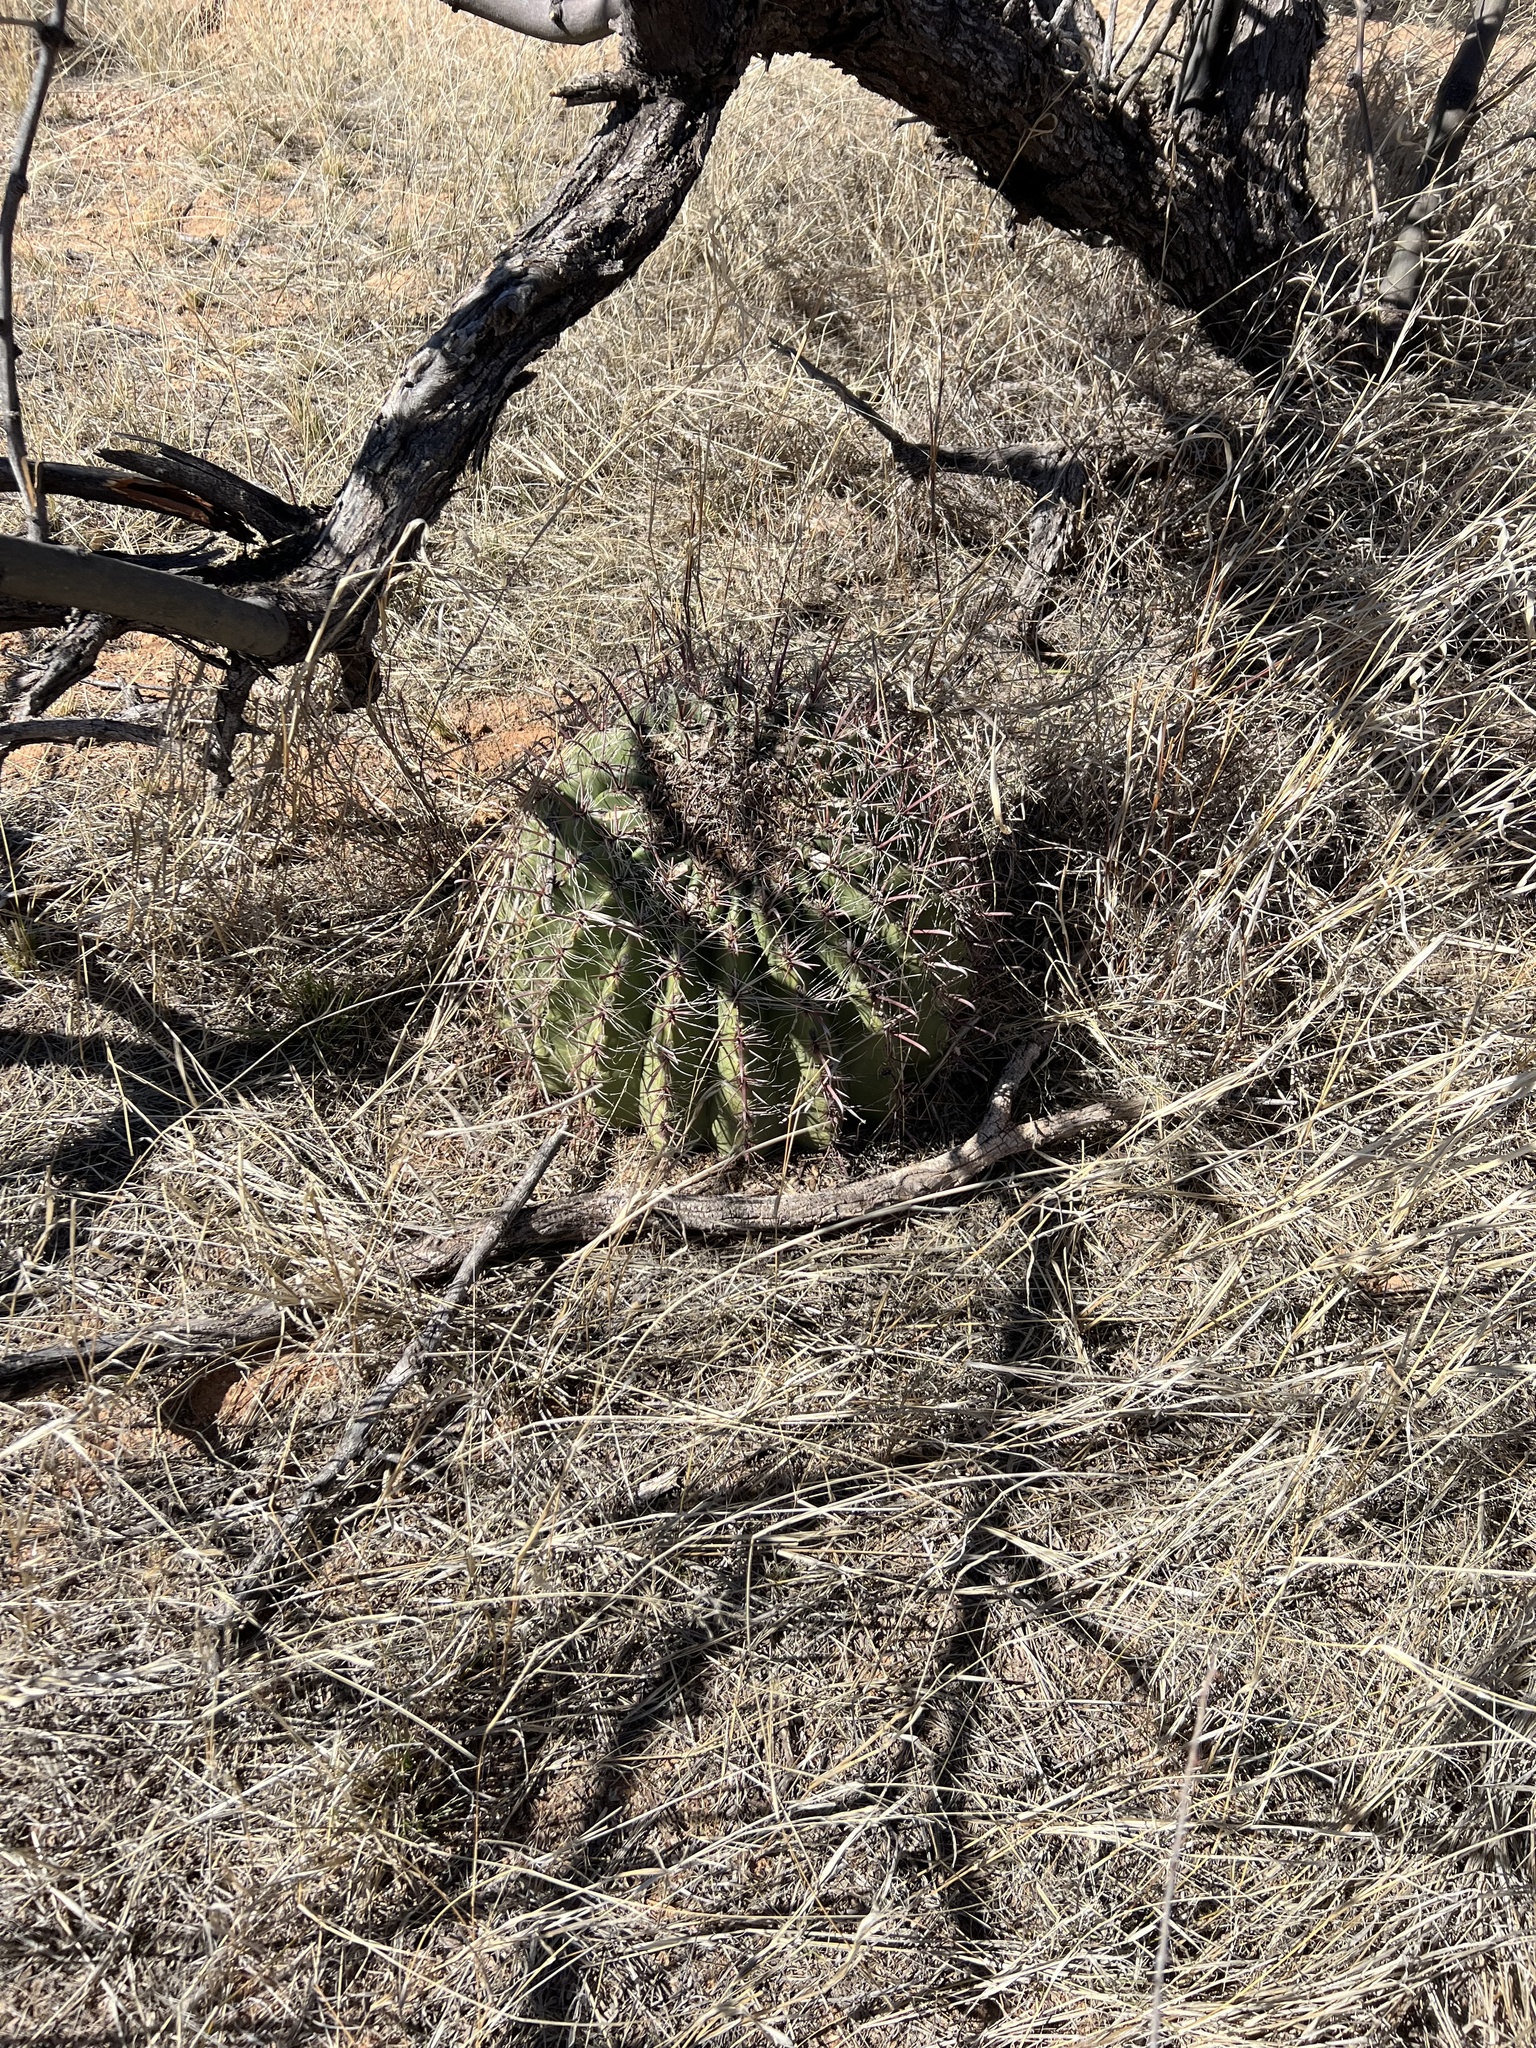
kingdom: Plantae
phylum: Tracheophyta
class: Magnoliopsida
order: Caryophyllales
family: Cactaceae
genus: Ferocactus
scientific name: Ferocactus wislizeni
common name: Candy barrel cactus
